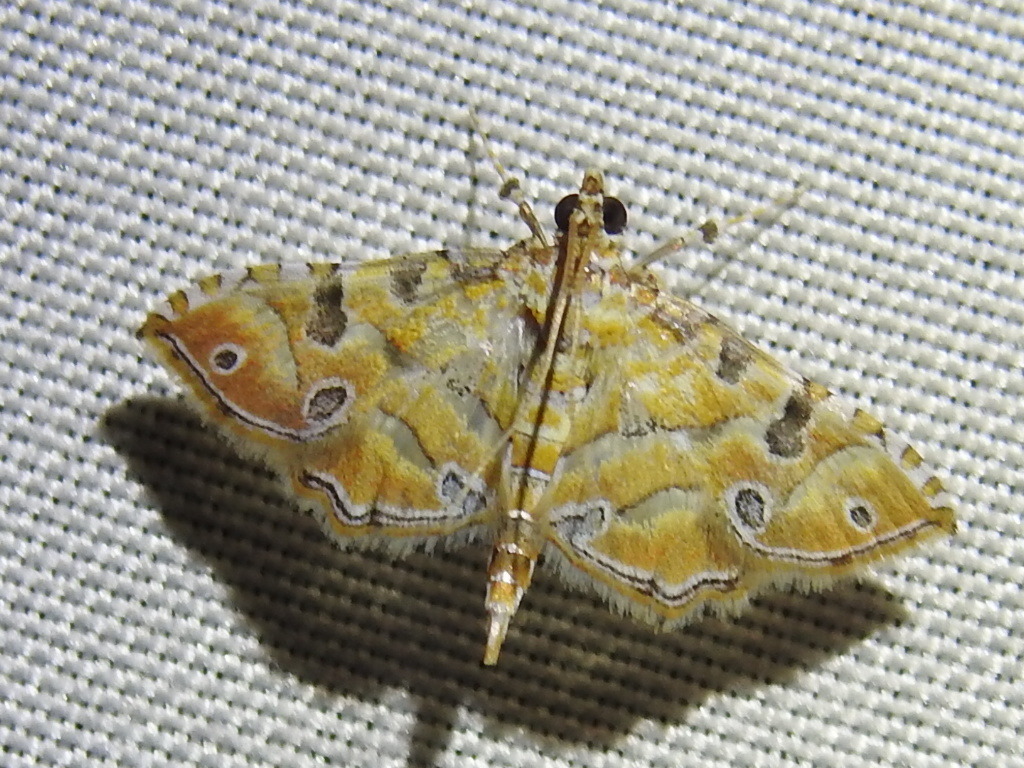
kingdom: Animalia
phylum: Arthropoda
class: Insecta
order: Lepidoptera
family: Crambidae
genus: Ommatospila
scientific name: Ommatospila narcaeusalis
